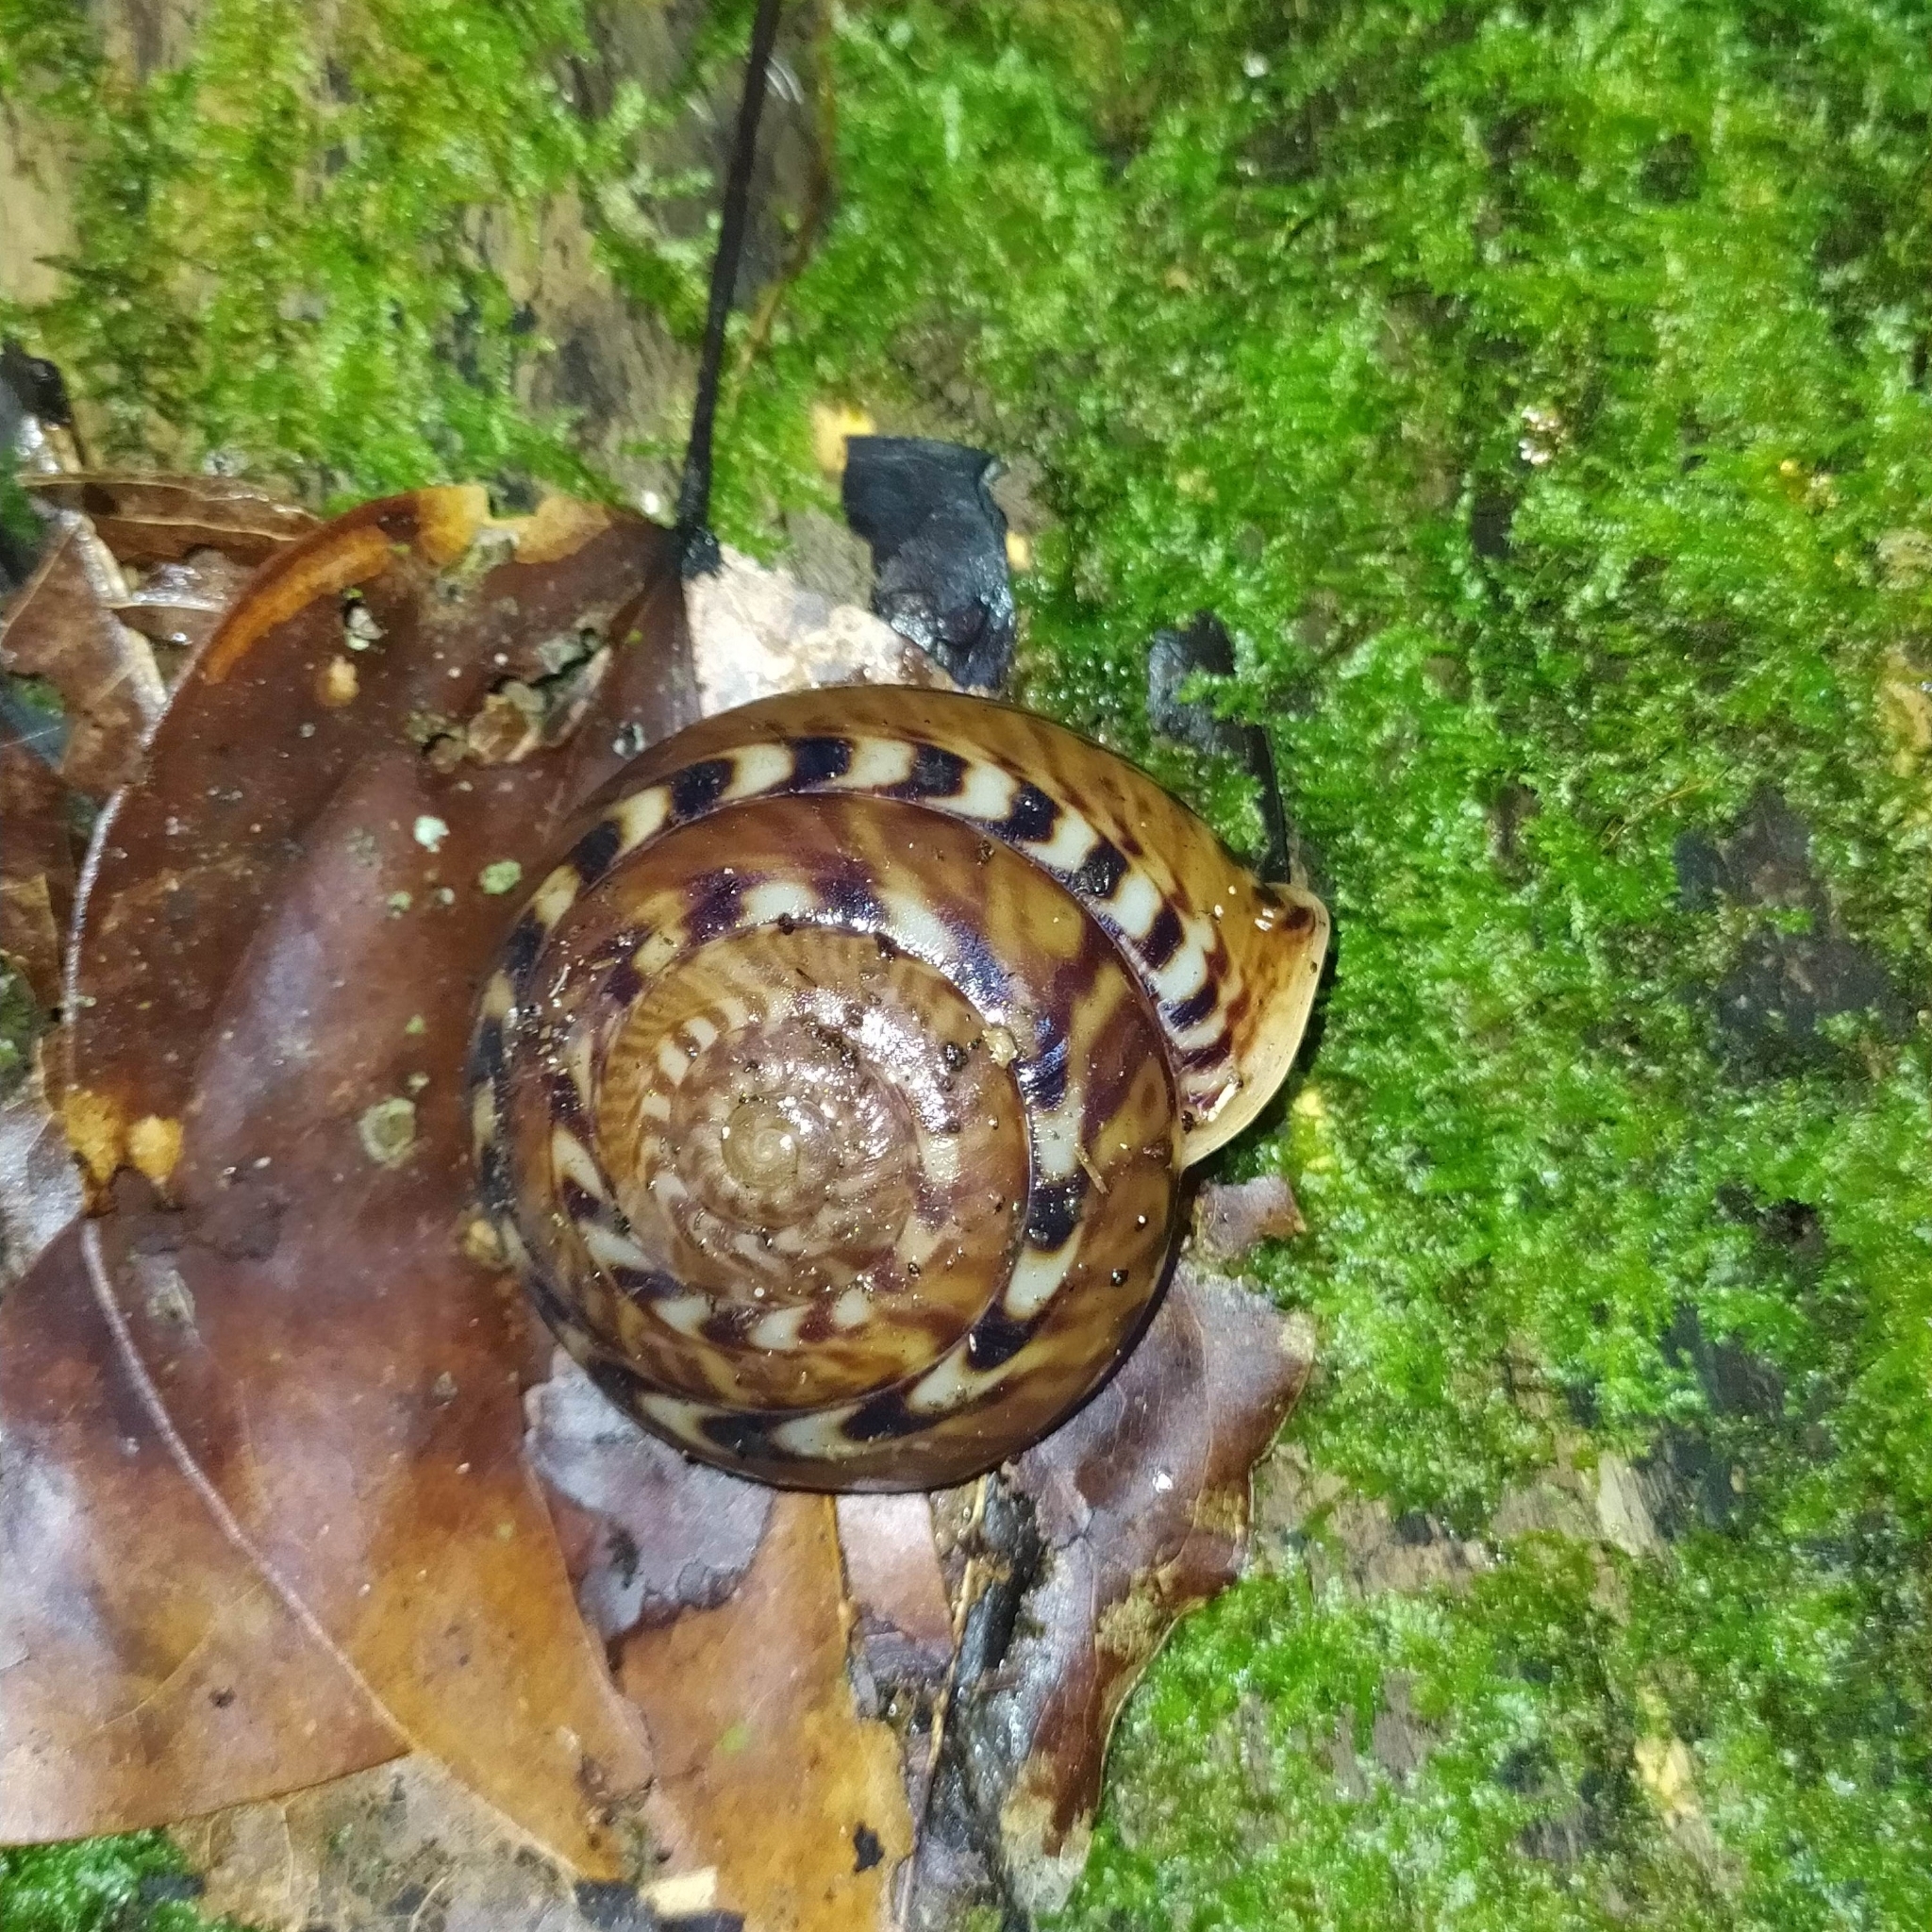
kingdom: Animalia
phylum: Mollusca
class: Gastropoda
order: Stylommatophora
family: Solaropsidae
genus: Solaropsis
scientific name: Solaropsis undata
